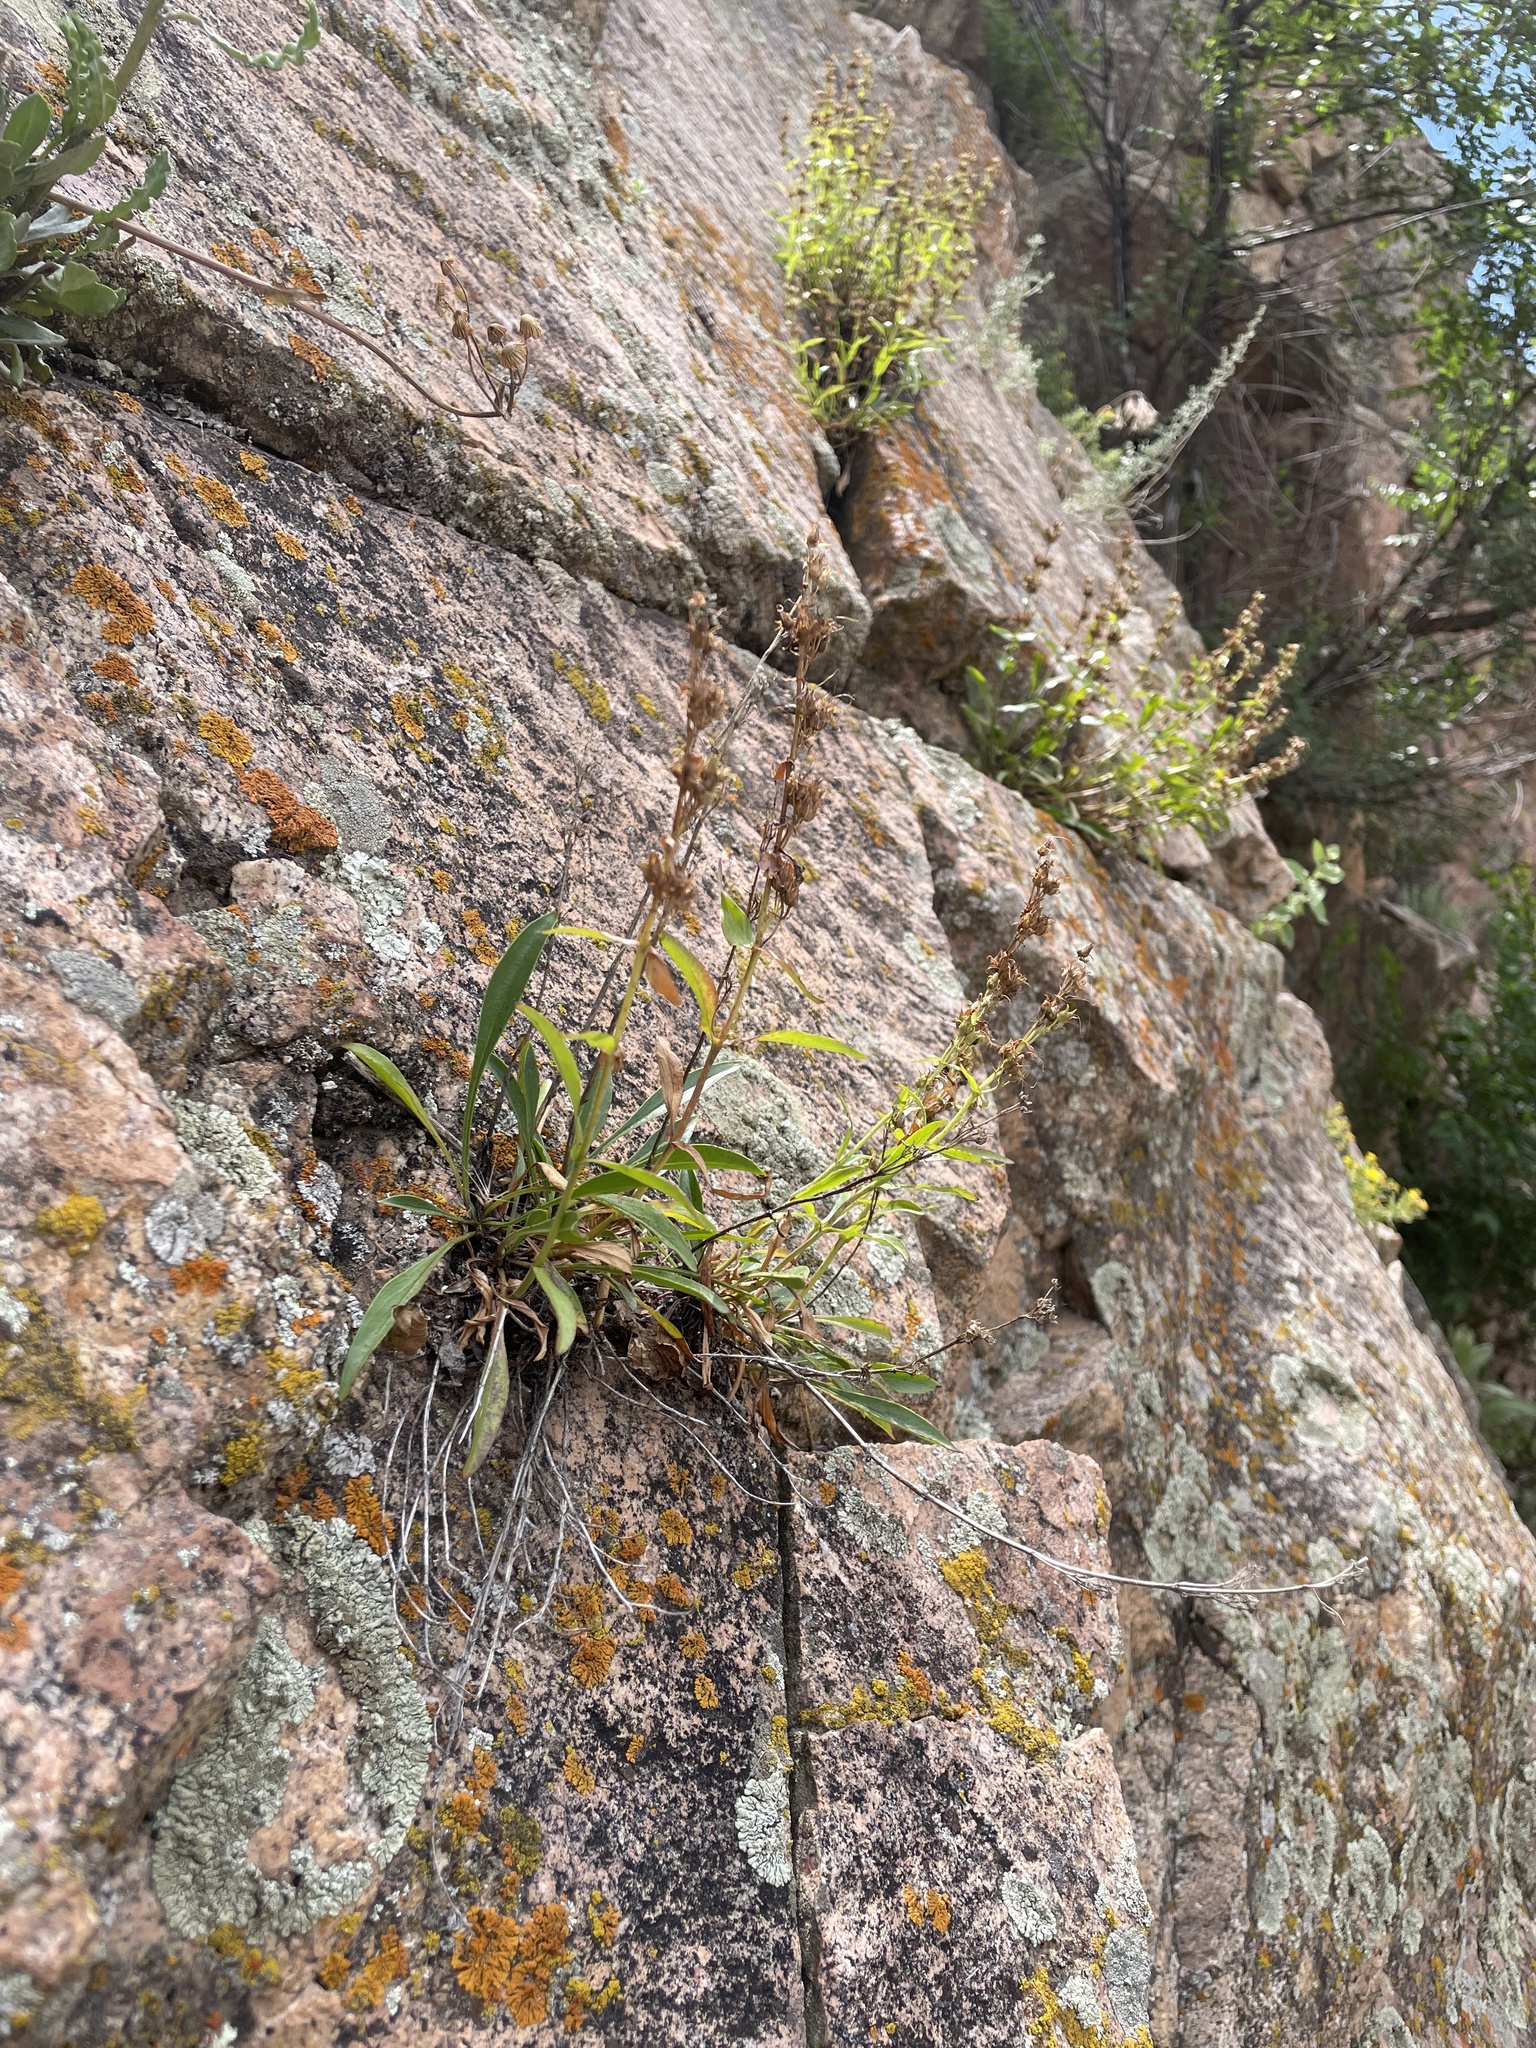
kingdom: Plantae
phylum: Tracheophyta
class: Magnoliopsida
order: Lamiales
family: Plantaginaceae
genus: Penstemon
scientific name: Penstemon virens
